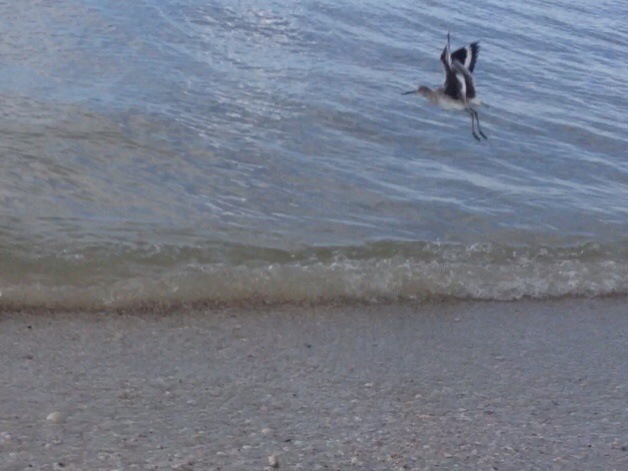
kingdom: Animalia
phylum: Chordata
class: Aves
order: Charadriiformes
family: Scolopacidae
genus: Tringa
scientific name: Tringa semipalmata
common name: Willet
